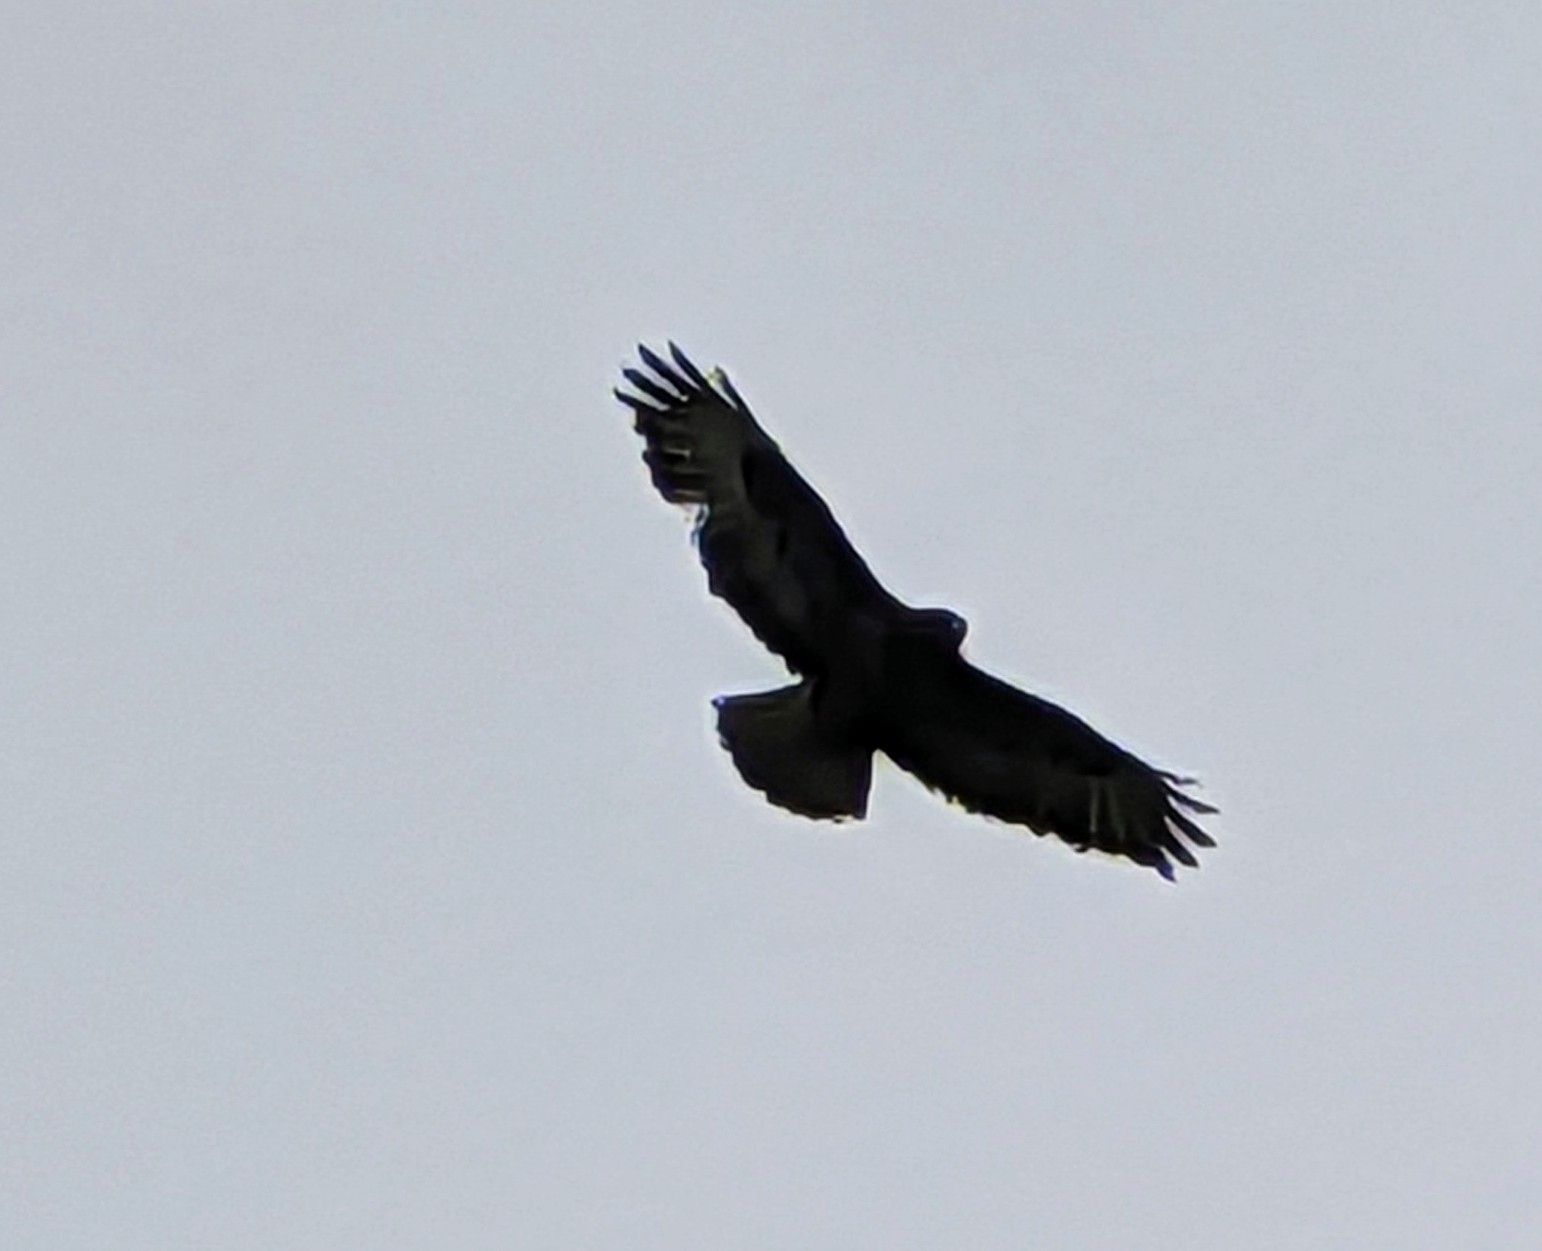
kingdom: Animalia
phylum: Chordata
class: Aves
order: Accipitriformes
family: Accipitridae
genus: Buteo
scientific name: Buteo buteo
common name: Common buzzard
